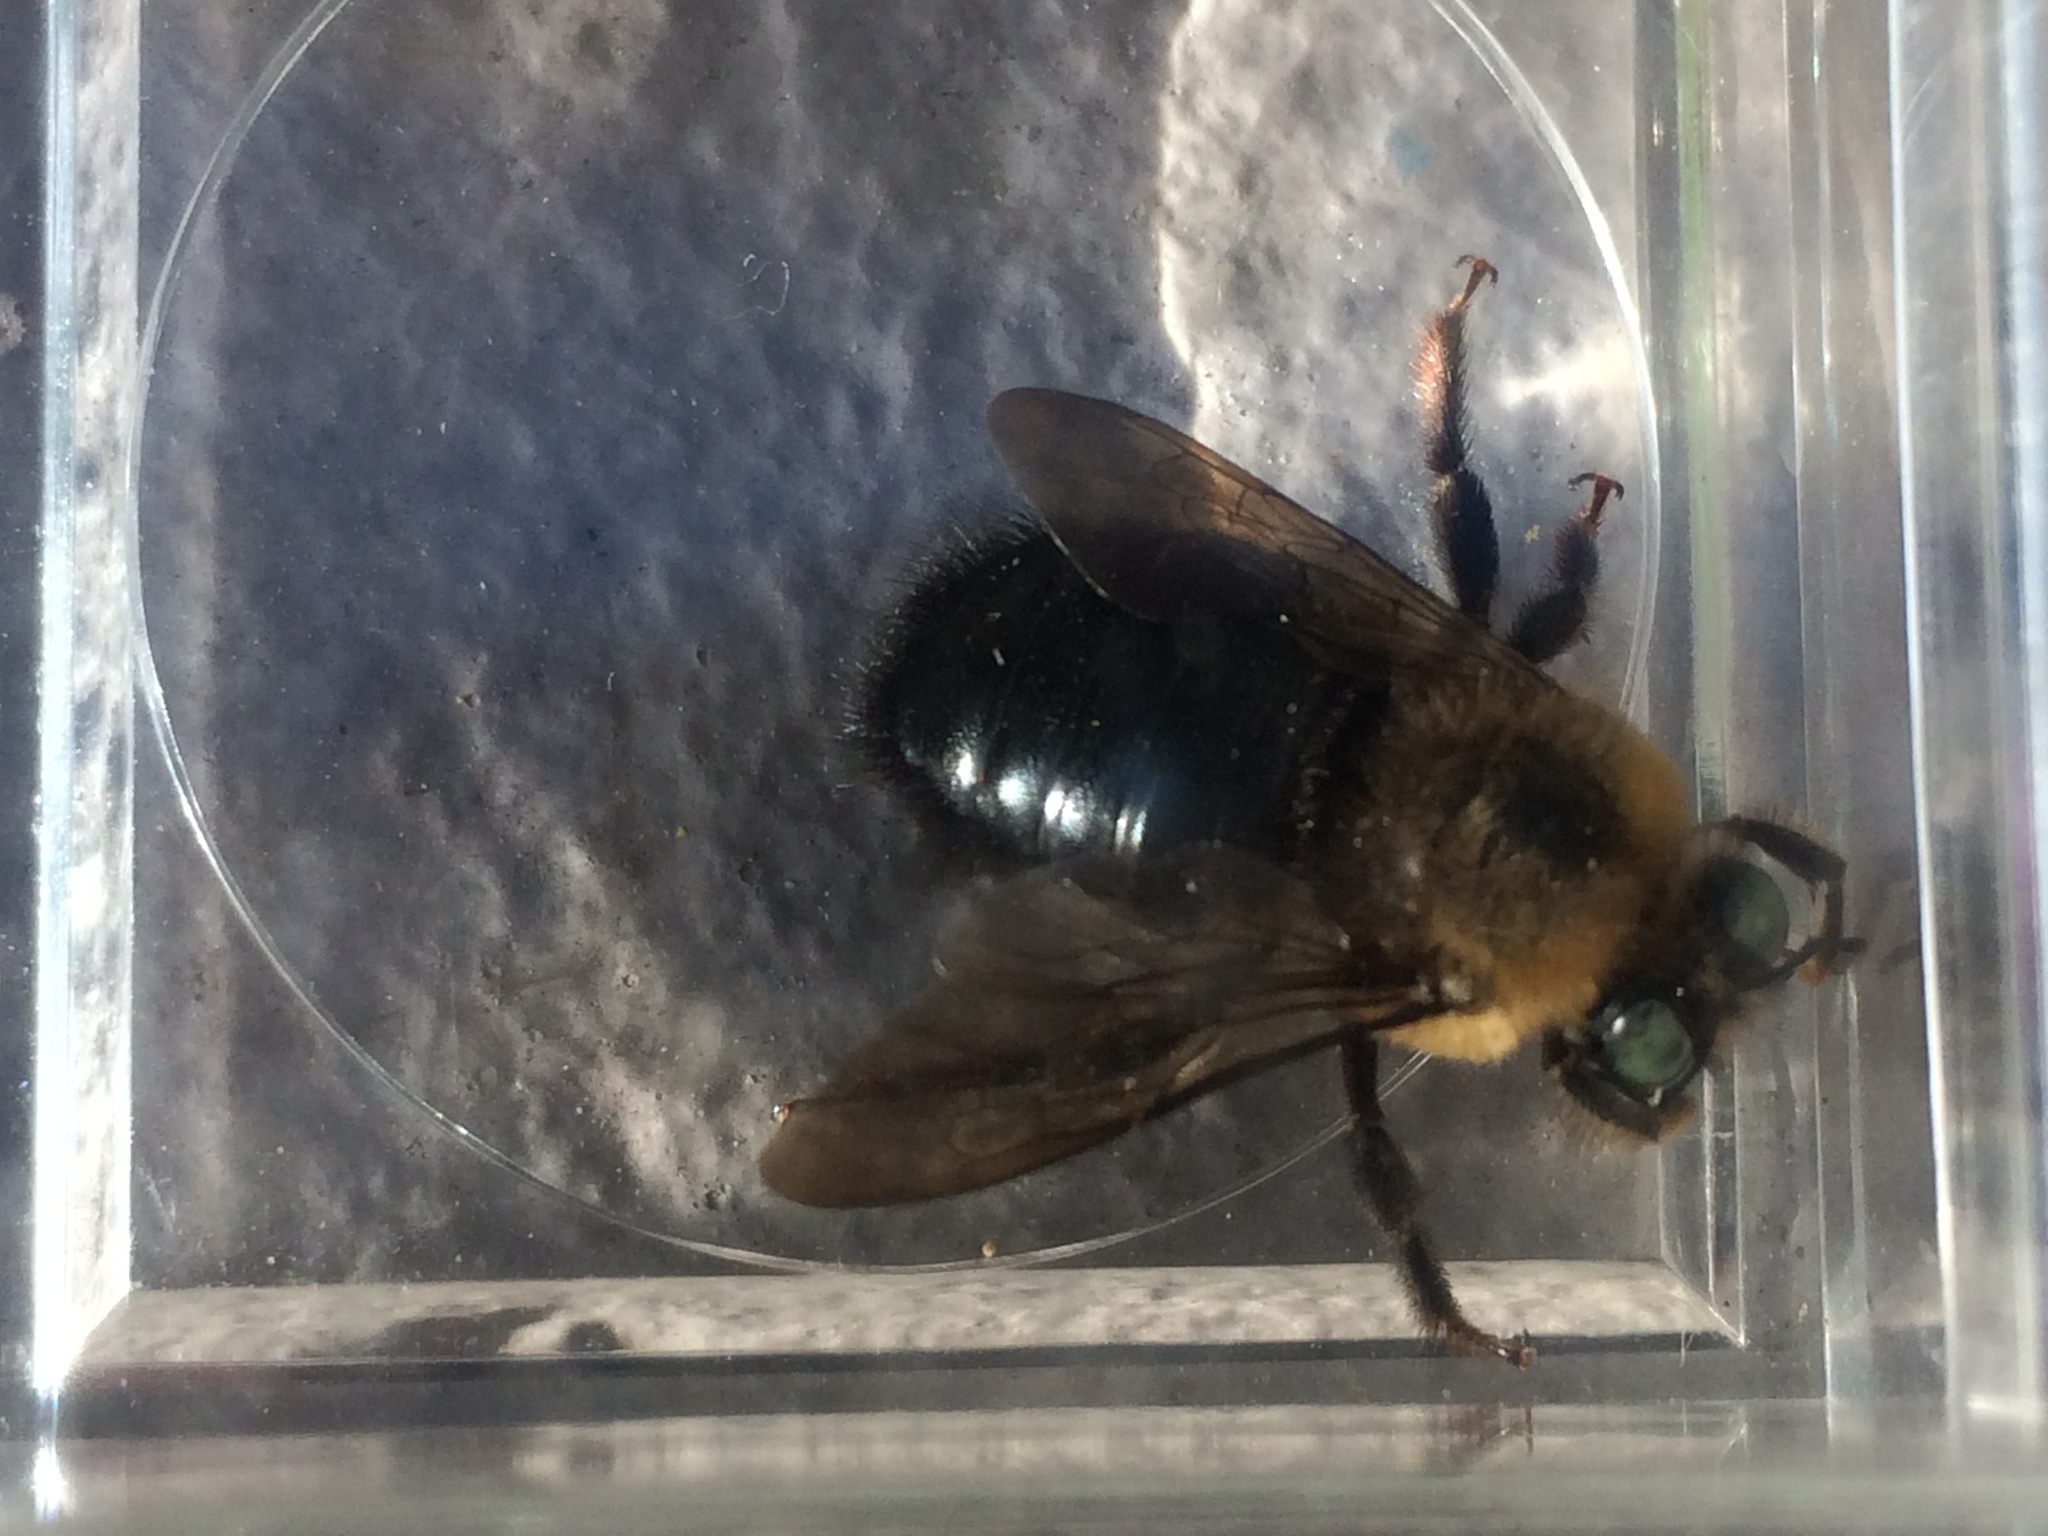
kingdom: Animalia
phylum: Arthropoda
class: Insecta
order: Hymenoptera
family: Apidae
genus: Xylocopa
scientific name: Xylocopa tabaniformis
